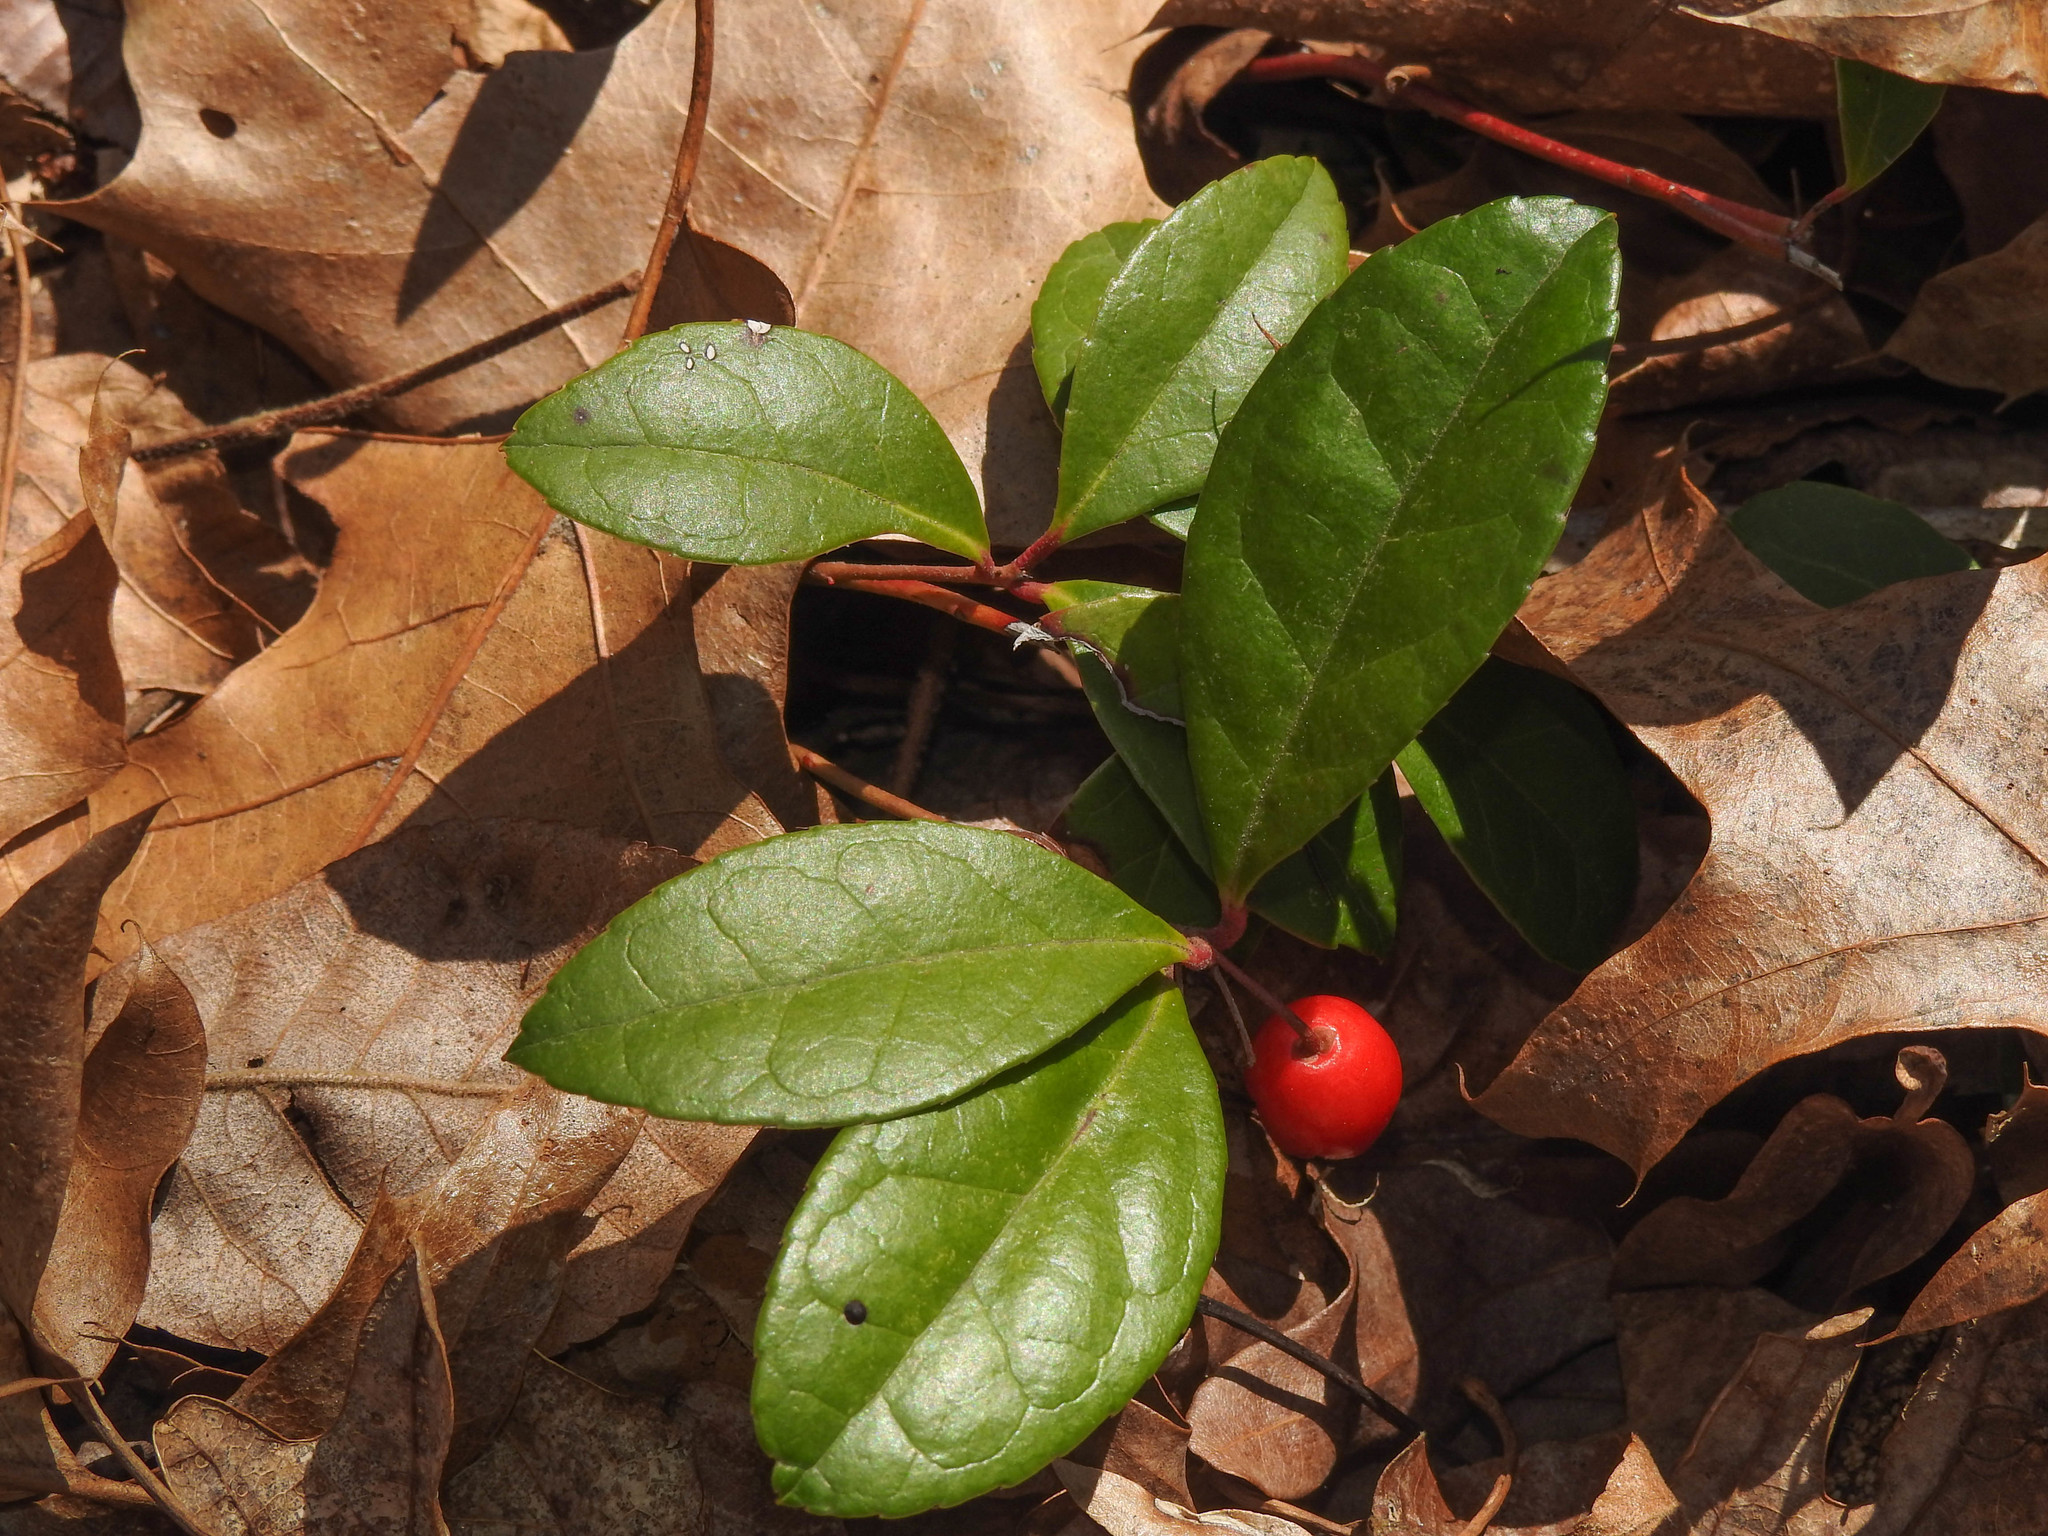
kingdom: Plantae
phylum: Tracheophyta
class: Magnoliopsida
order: Ericales
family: Ericaceae
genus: Gaultheria
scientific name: Gaultheria procumbens
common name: Checkerberry
